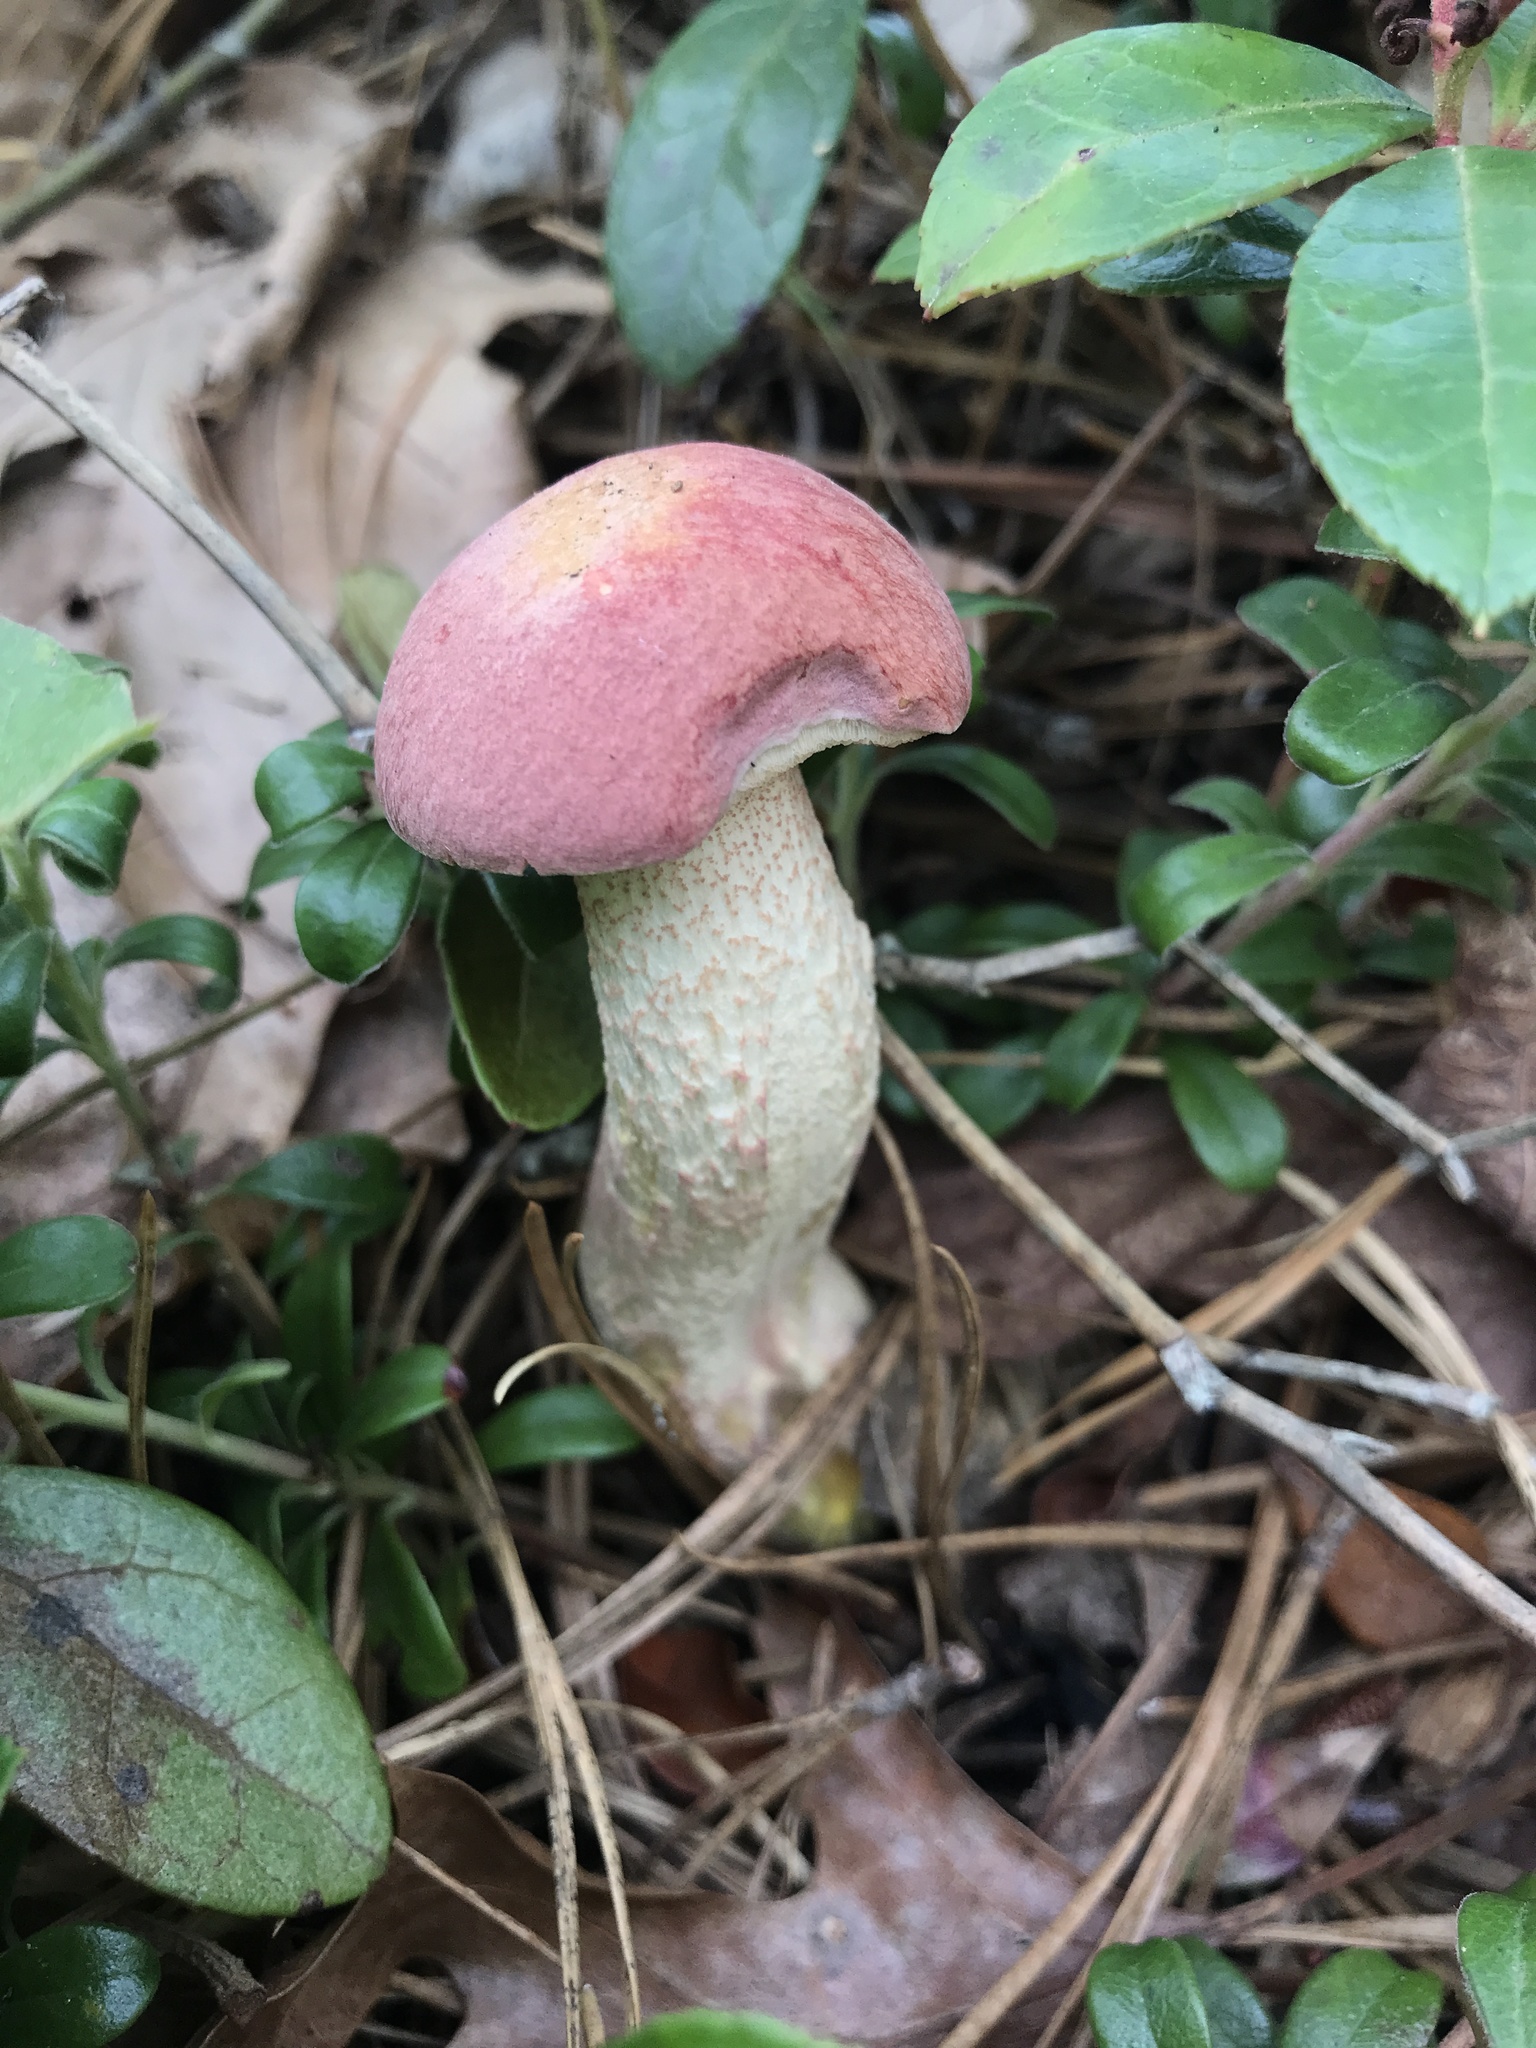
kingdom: Fungi
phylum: Basidiomycota
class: Agaricomycetes
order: Boletales
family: Boletaceae
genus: Harrya
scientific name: Harrya chromipes
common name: Chrome-footed bolete
